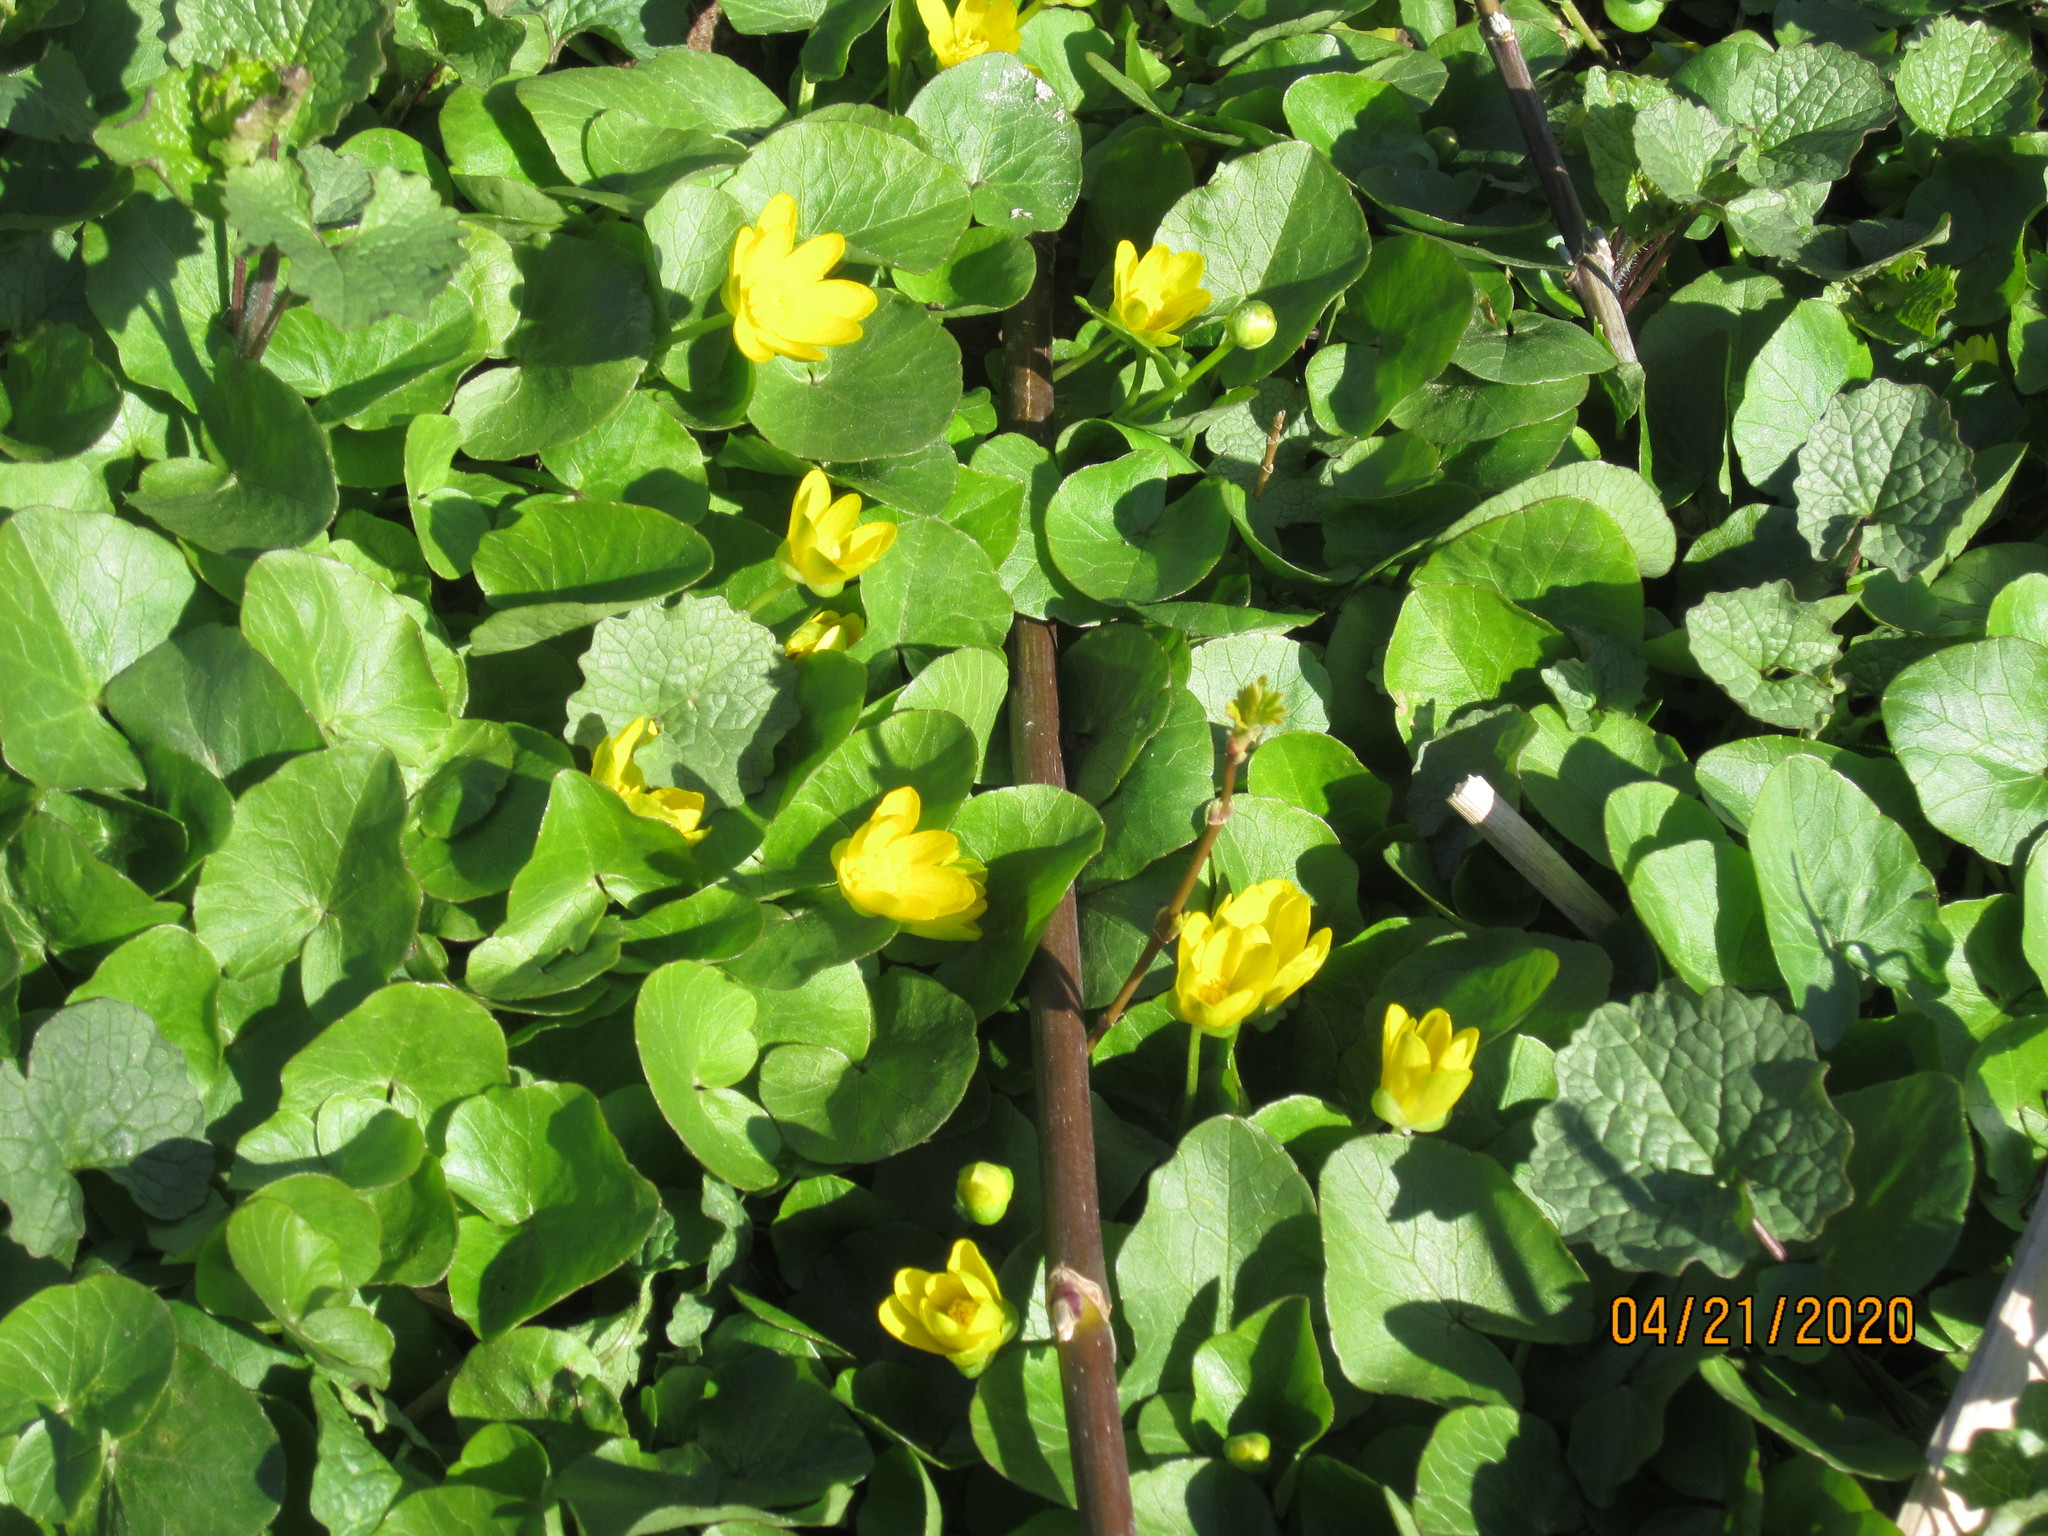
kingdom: Plantae
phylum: Tracheophyta
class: Magnoliopsida
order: Ranunculales
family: Ranunculaceae
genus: Ficaria
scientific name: Ficaria verna
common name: Lesser celandine
